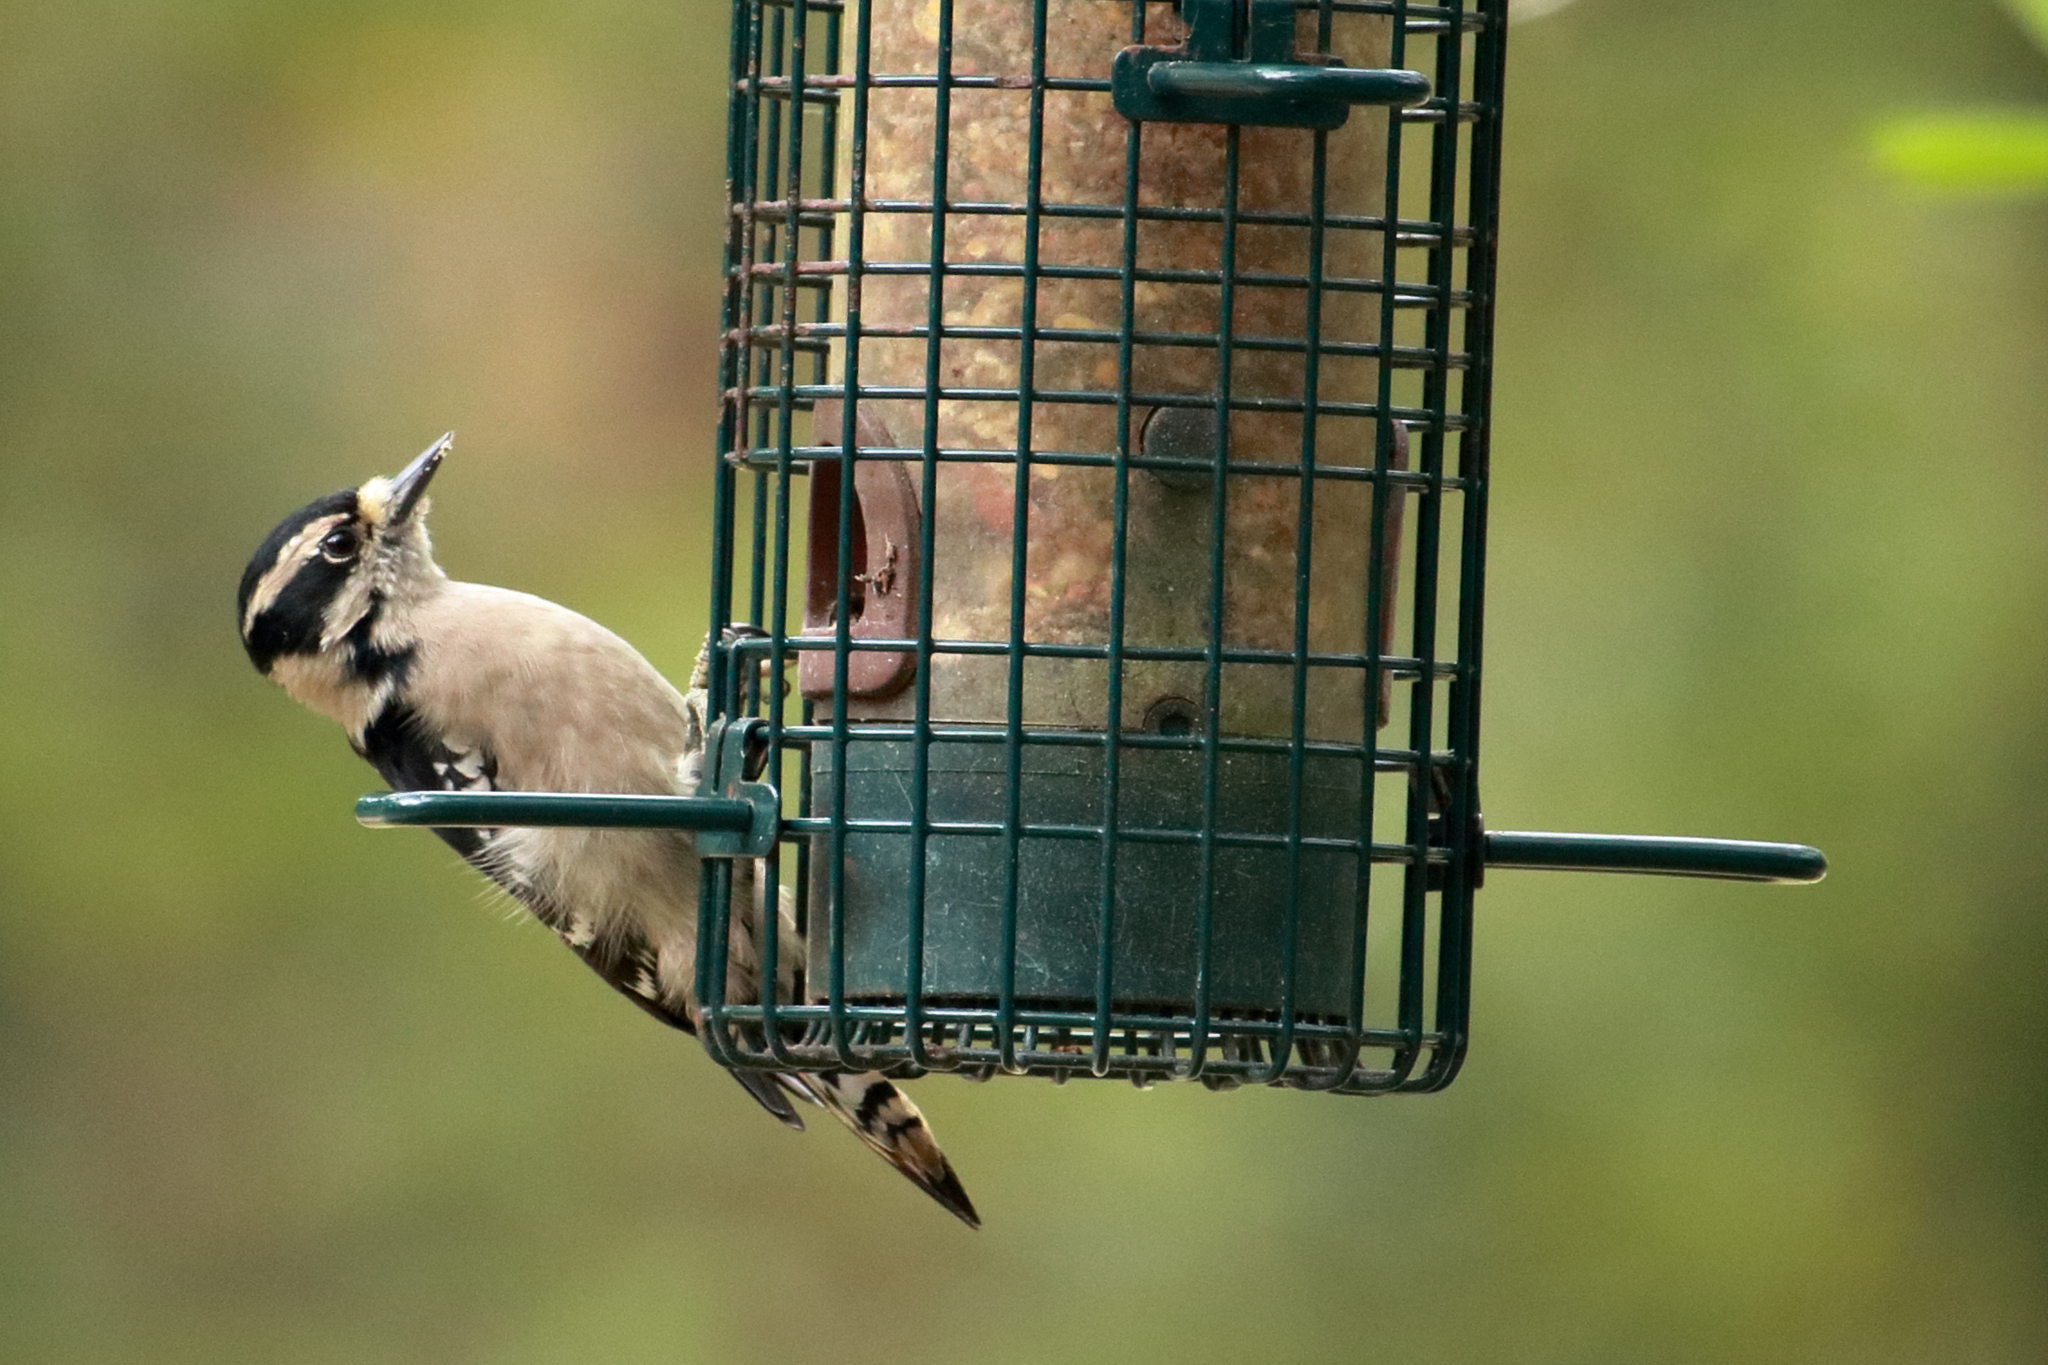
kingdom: Animalia
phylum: Chordata
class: Aves
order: Piciformes
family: Picidae
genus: Dryobates
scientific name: Dryobates pubescens
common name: Downy woodpecker
